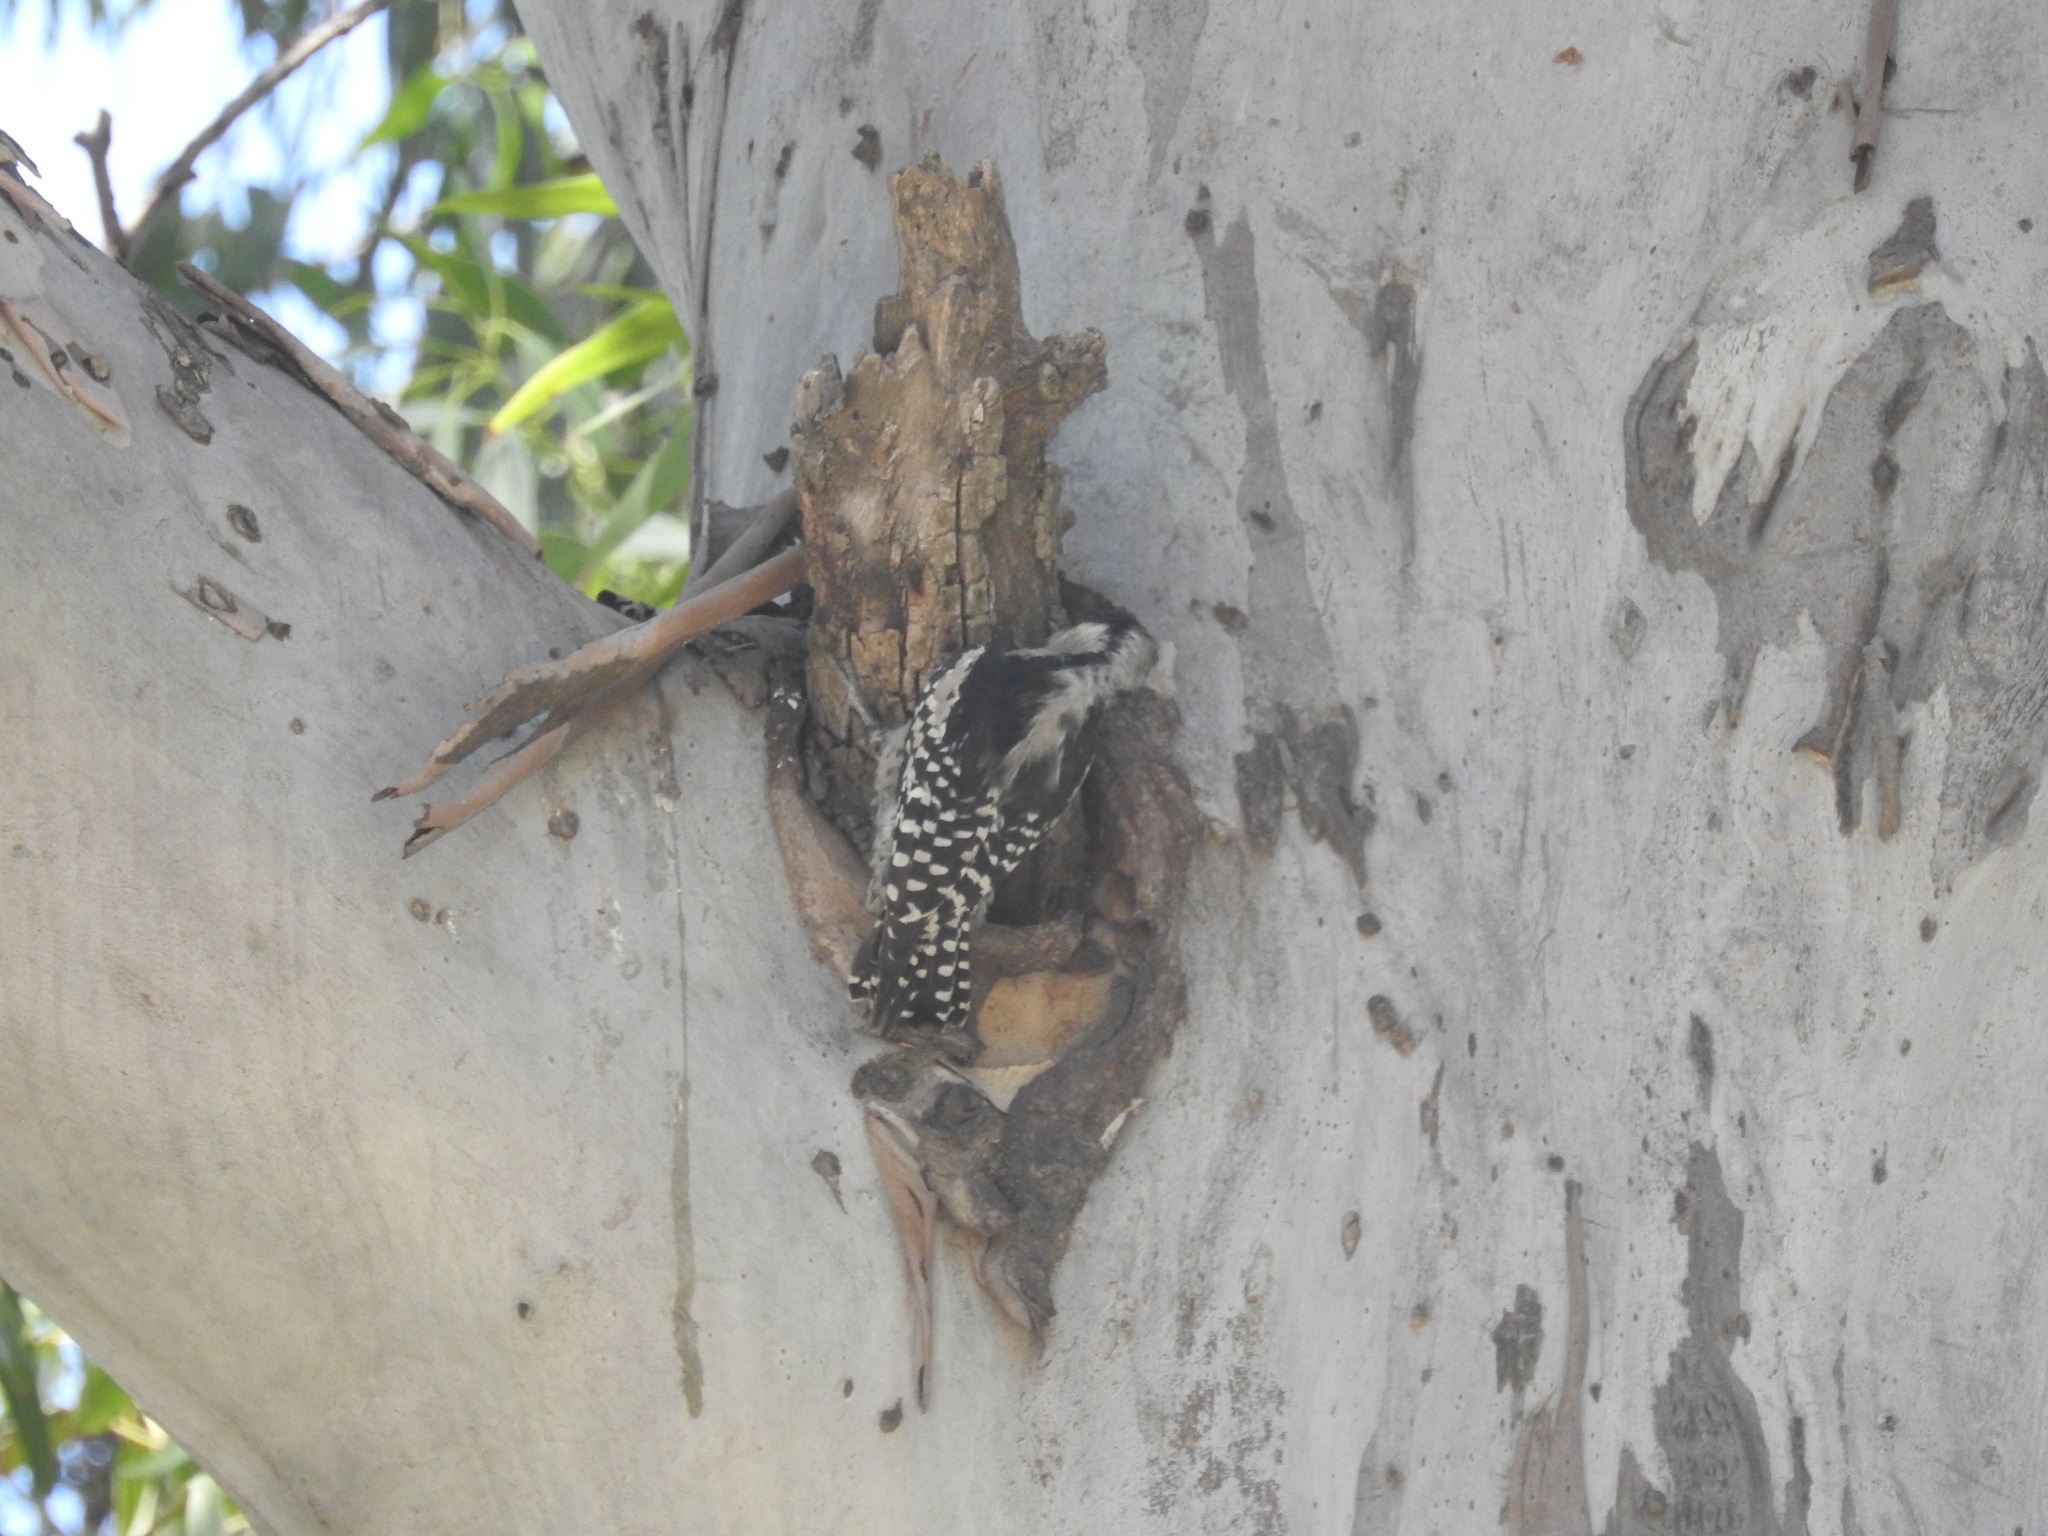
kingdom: Animalia
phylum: Chordata
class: Aves
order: Piciformes
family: Picidae
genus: Melanerpes
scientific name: Melanerpes cactorum
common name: White-fronted woodpecker
